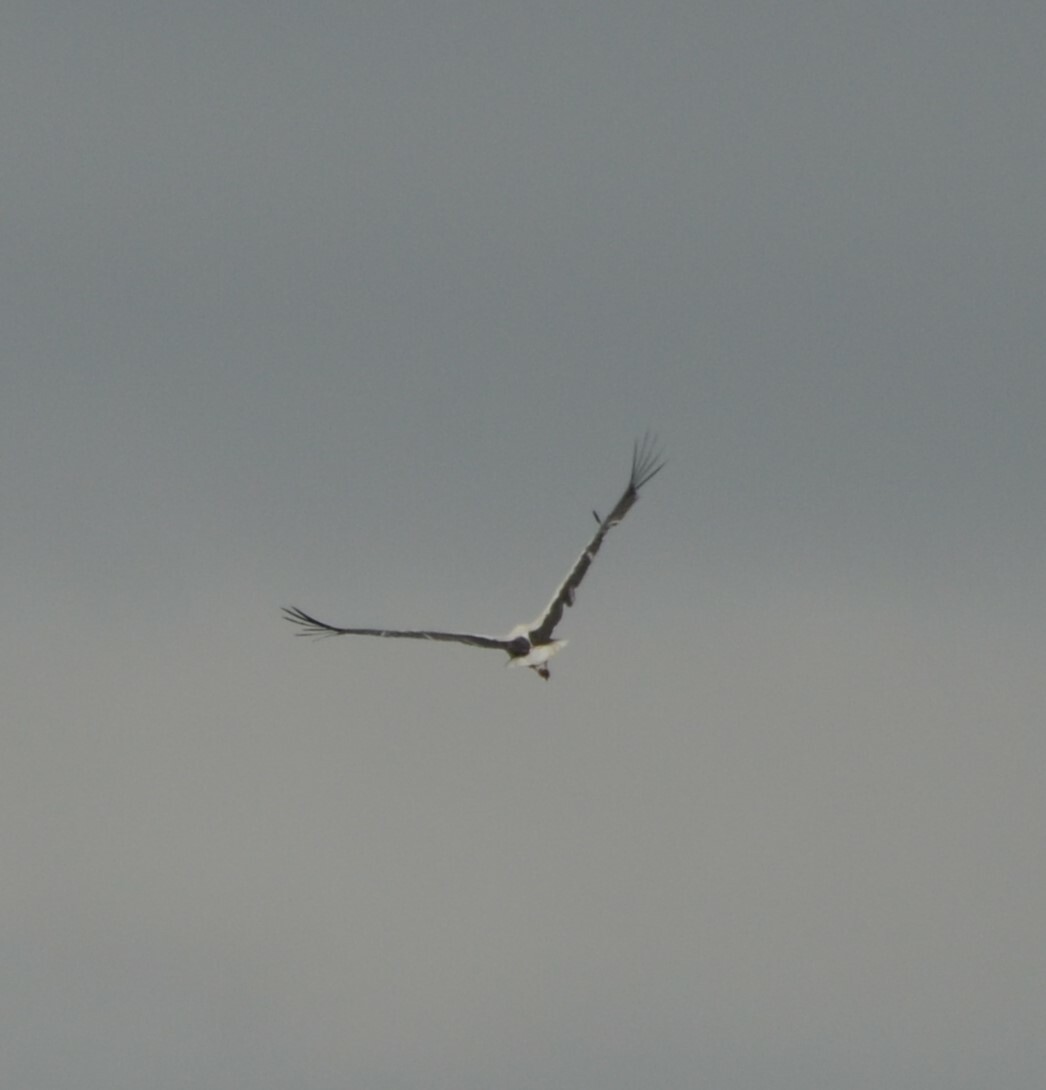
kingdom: Animalia
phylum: Chordata
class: Aves
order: Ciconiiformes
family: Ciconiidae
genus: Ciconia
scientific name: Ciconia ciconia
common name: White stork
